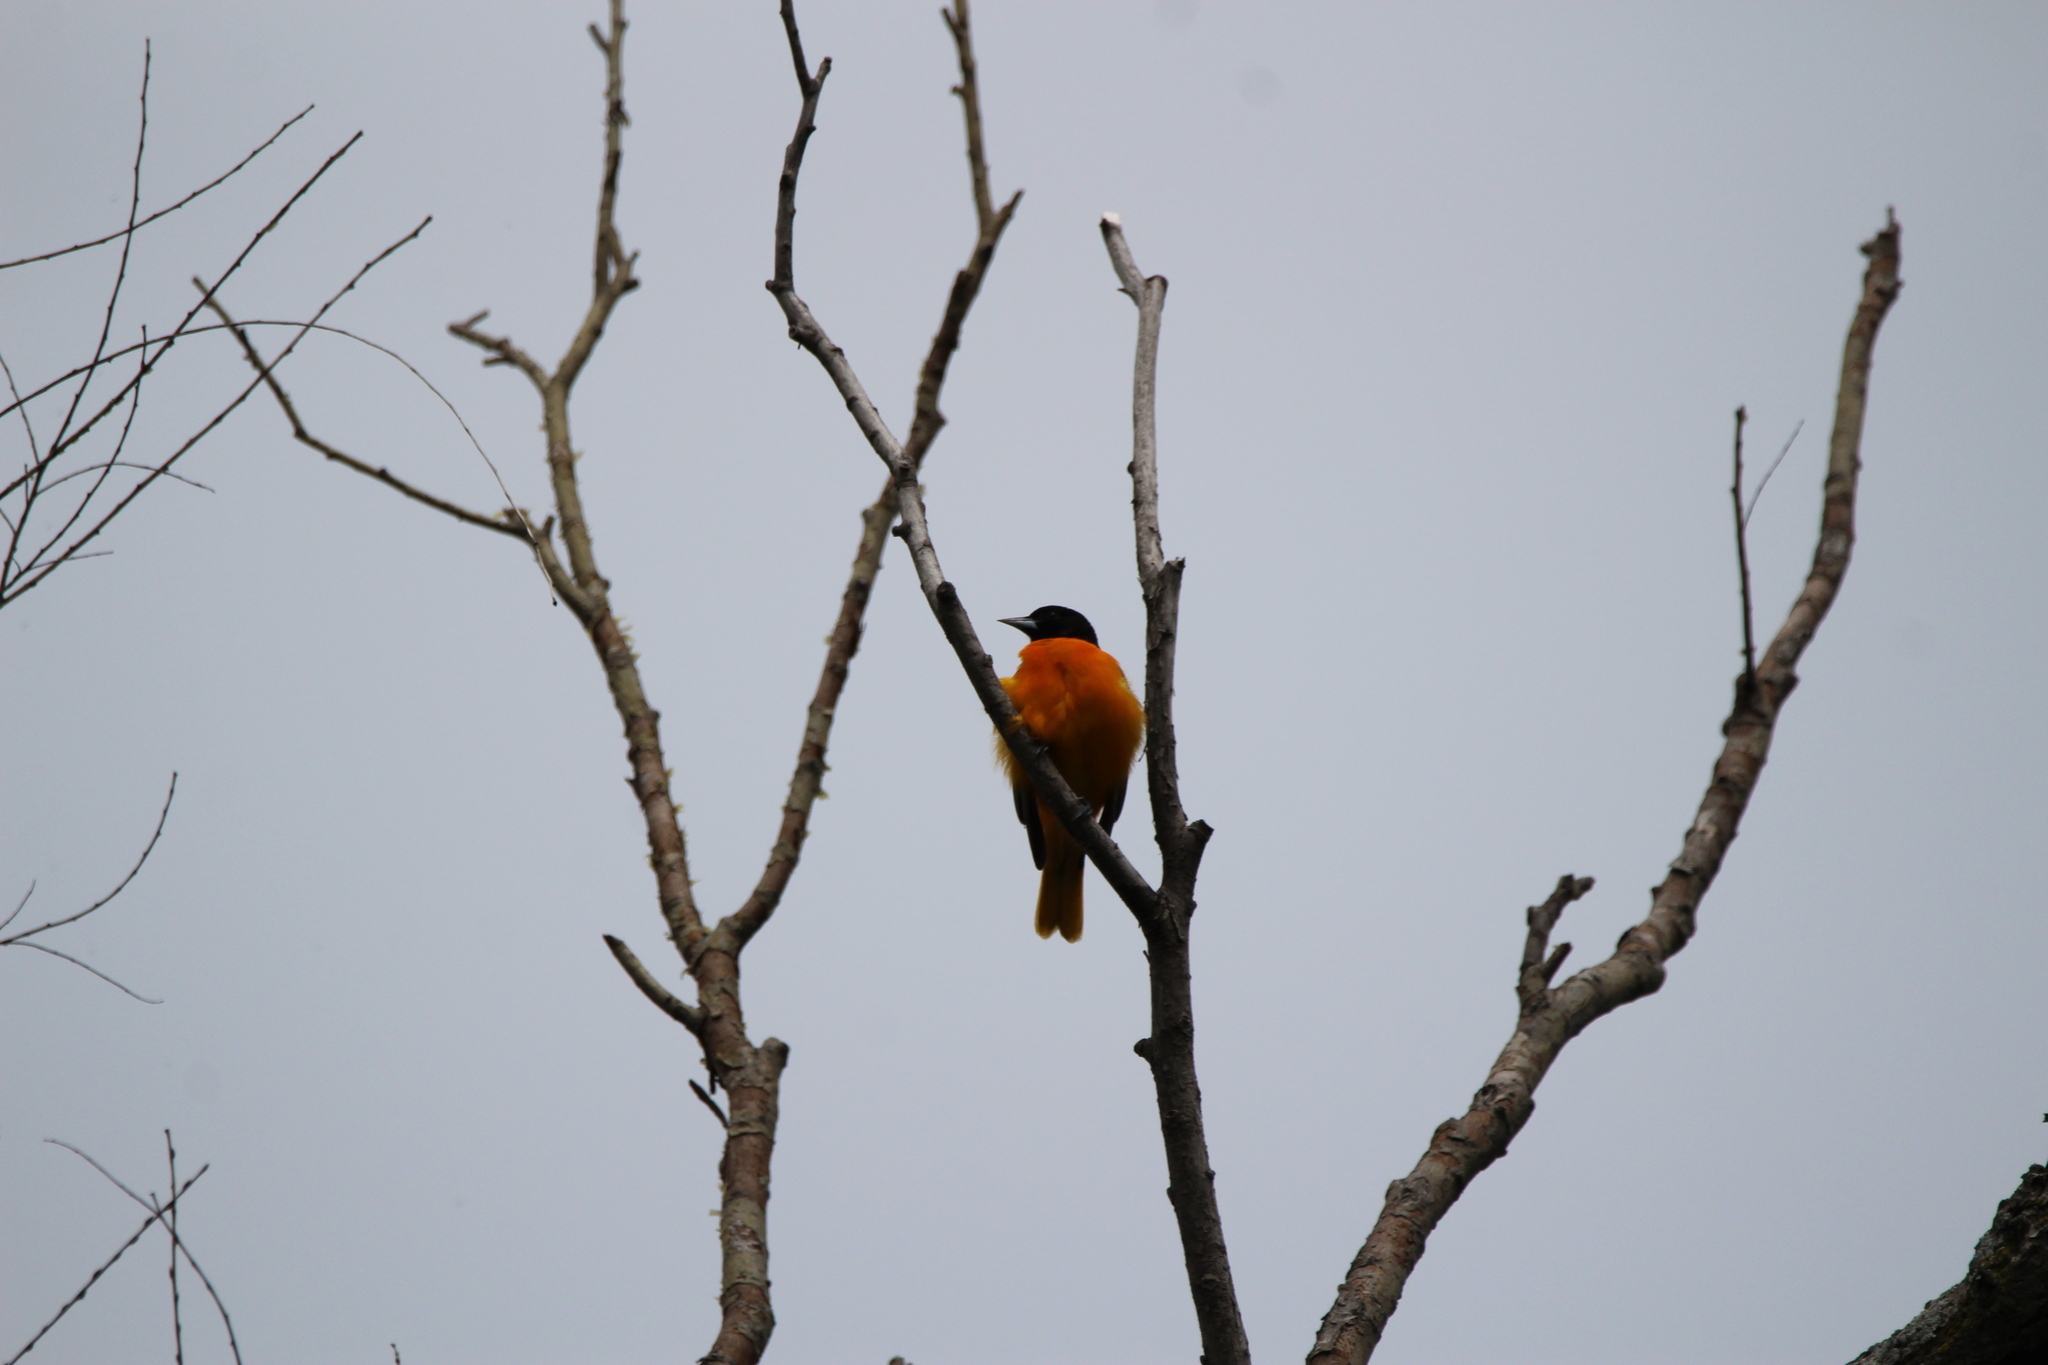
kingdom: Animalia
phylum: Chordata
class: Aves
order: Passeriformes
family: Icteridae
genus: Icterus
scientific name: Icterus galbula
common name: Baltimore oriole
